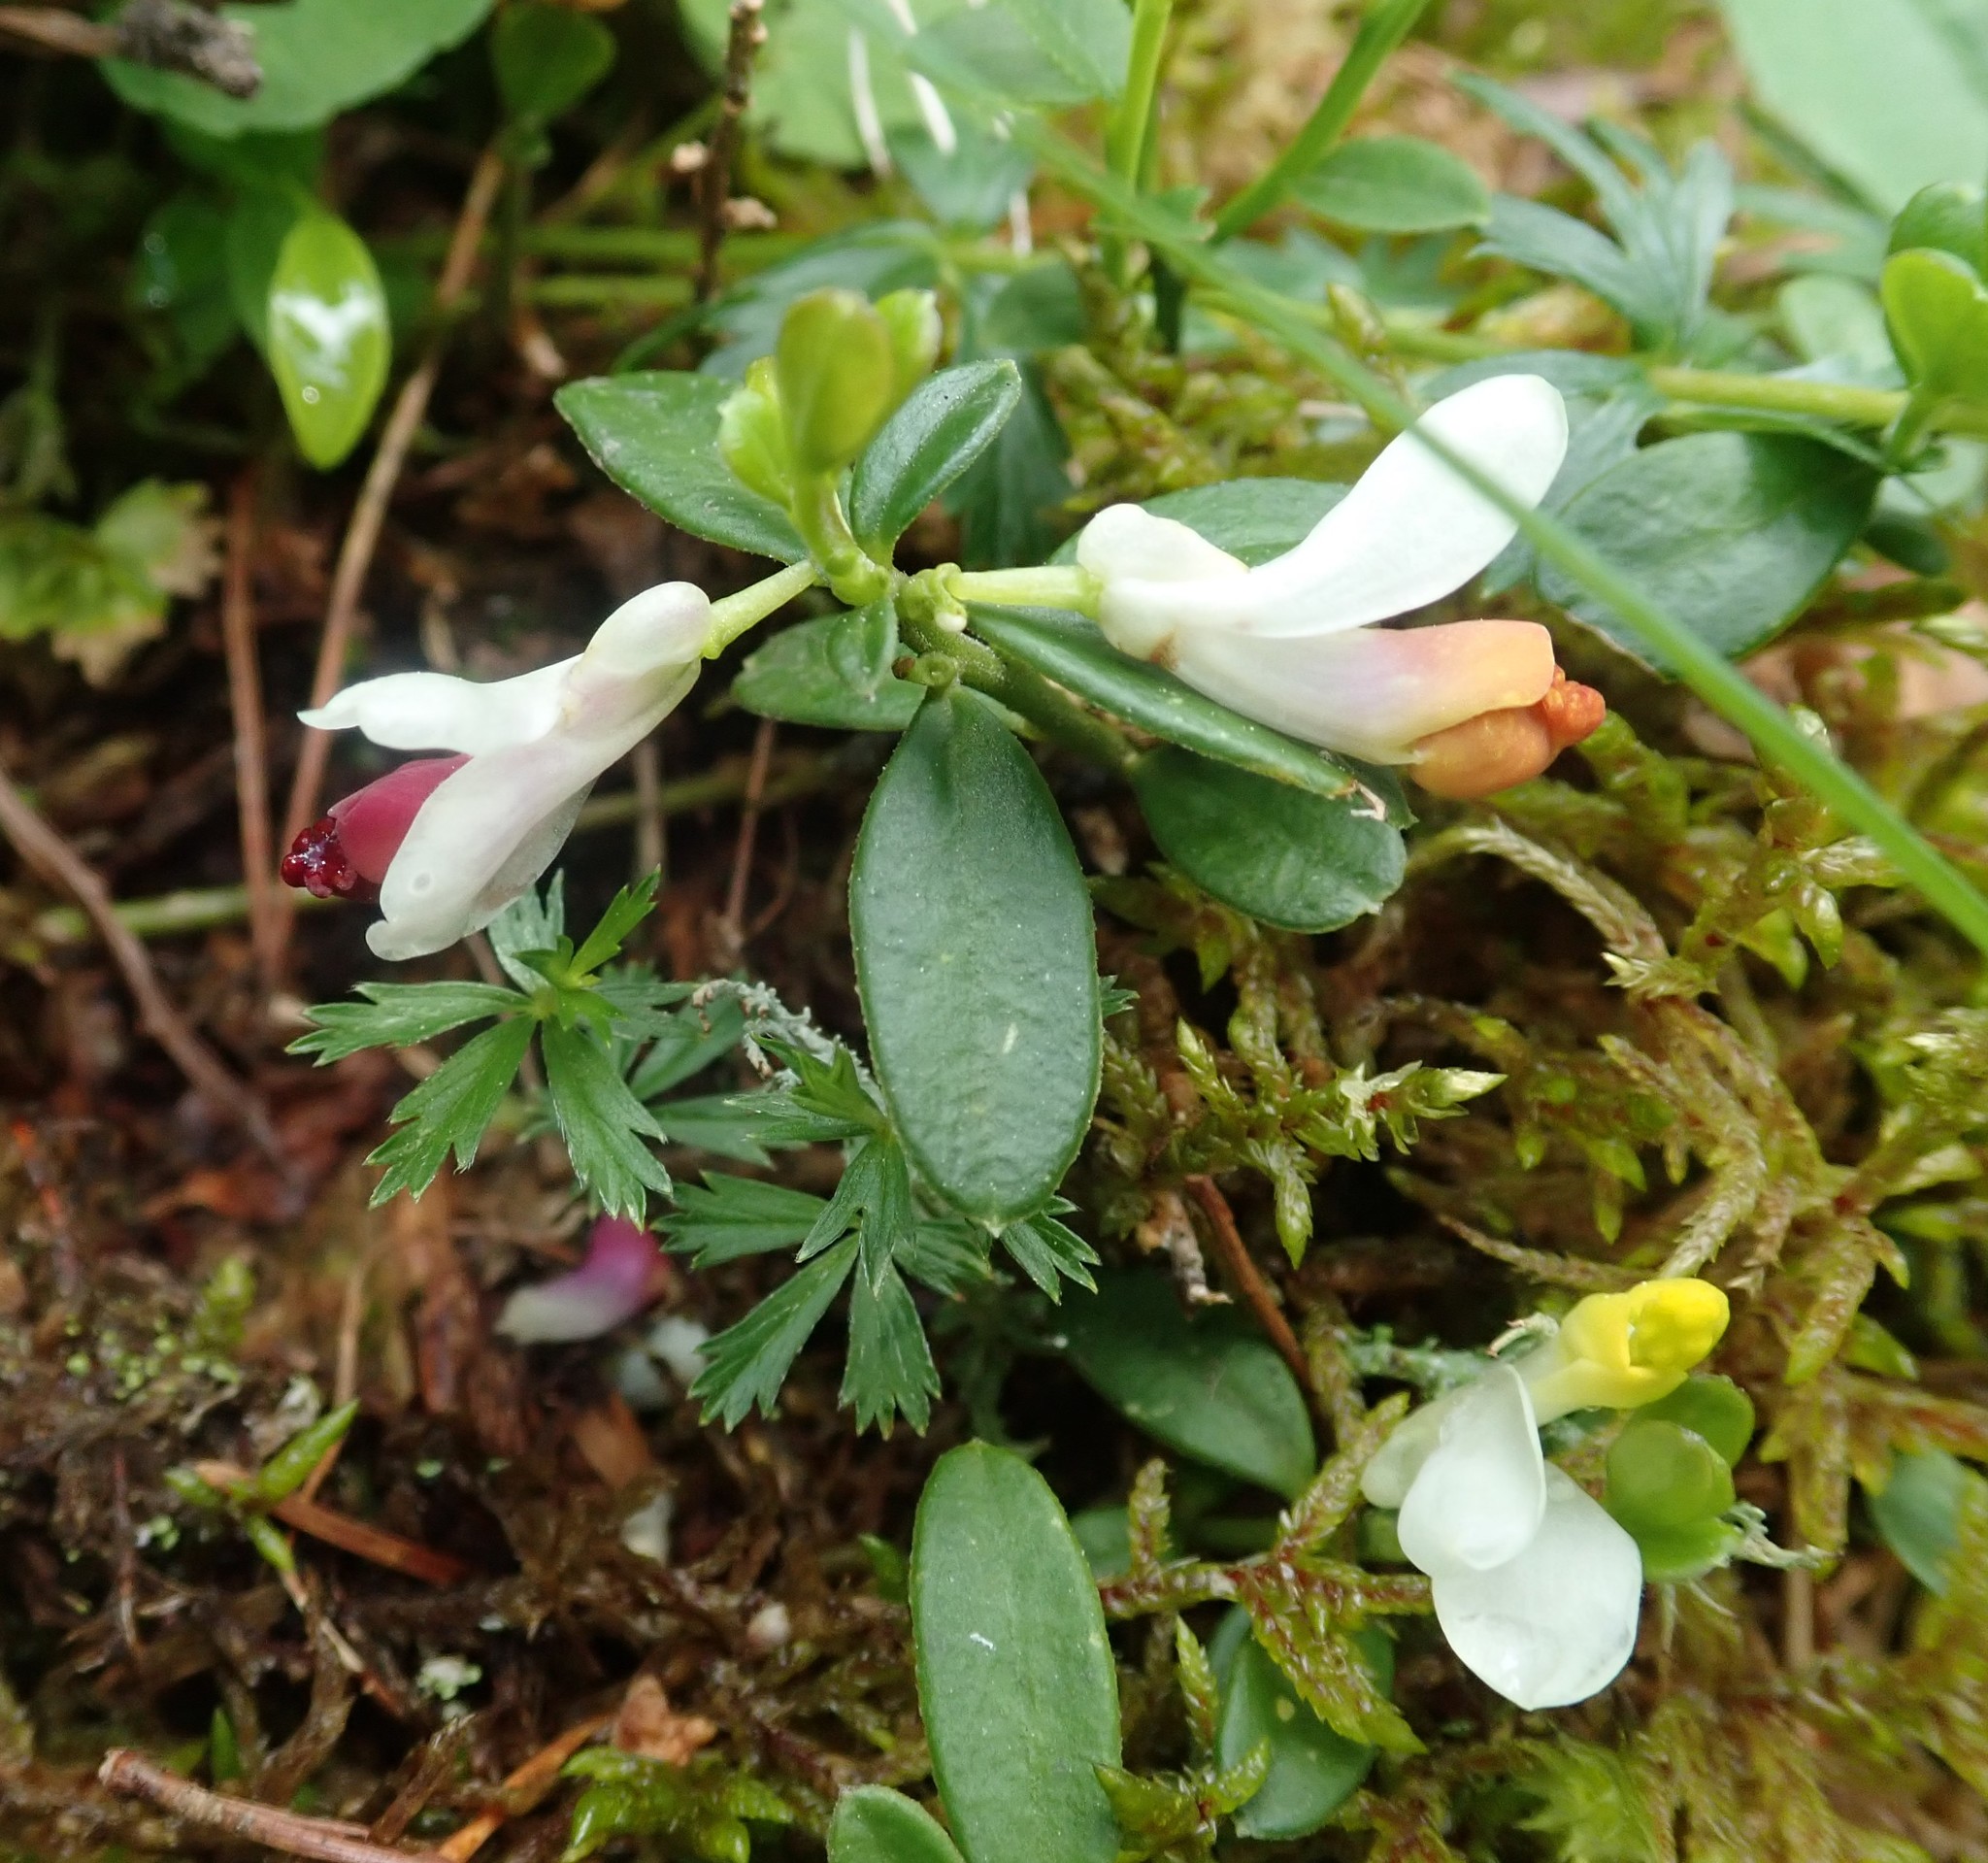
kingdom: Plantae
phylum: Tracheophyta
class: Magnoliopsida
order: Fabales
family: Polygalaceae
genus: Polygaloides
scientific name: Polygaloides chamaebuxus
